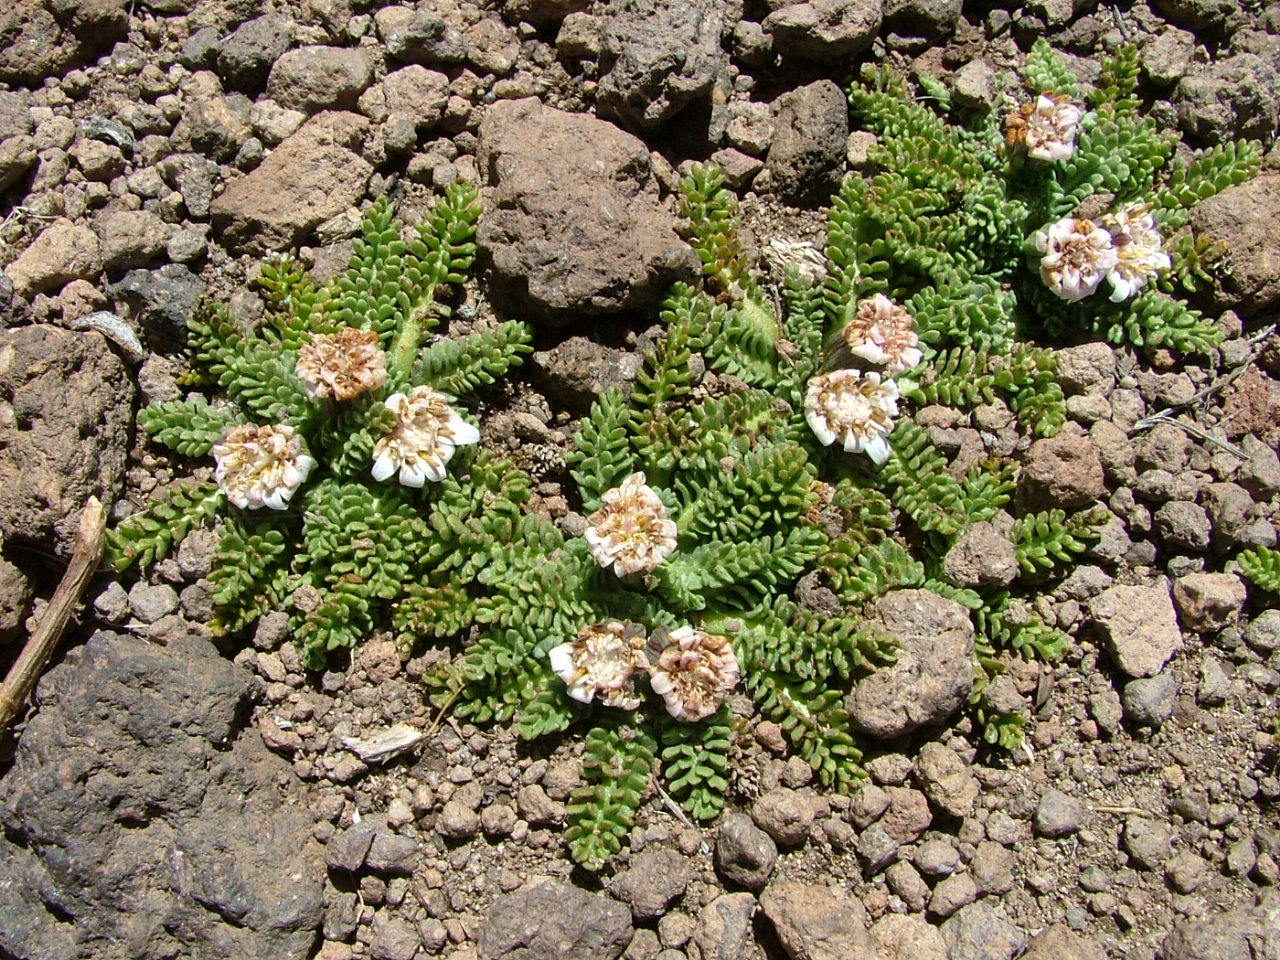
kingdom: Plantae
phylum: Tracheophyta
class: Magnoliopsida
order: Asterales
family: Asteraceae
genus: Leucheria
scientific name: Leucheria scrobiculata
